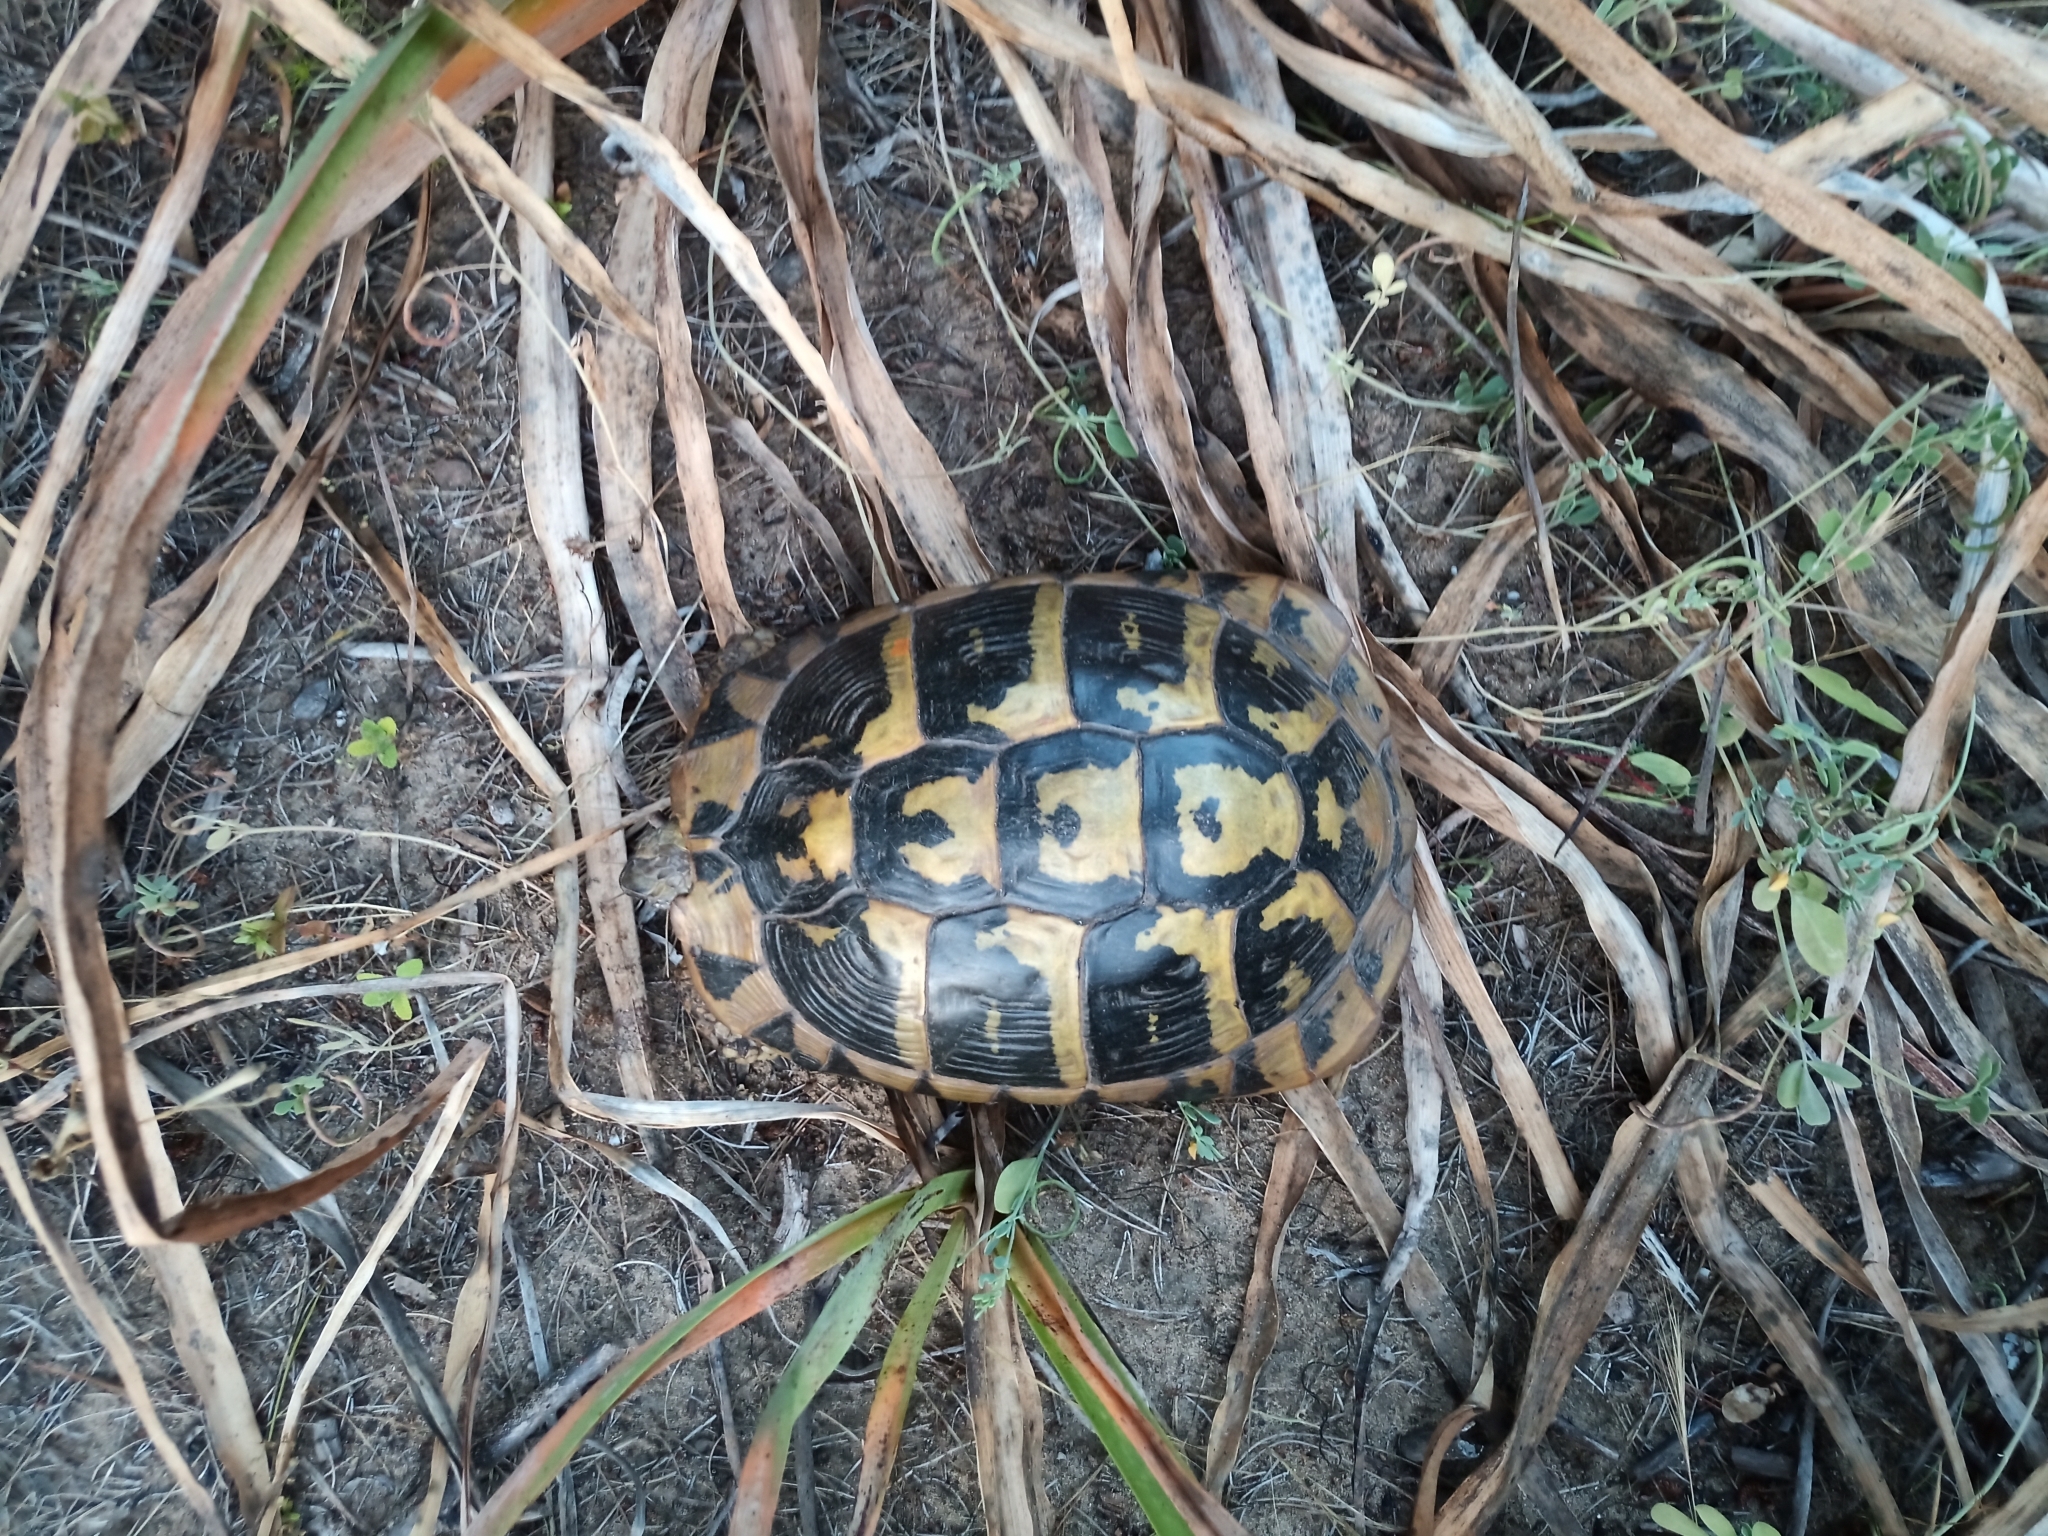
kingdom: Animalia
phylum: Chordata
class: Testudines
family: Testudinidae
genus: Testudo
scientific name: Testudo hermanni
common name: Hermann's tortoise
